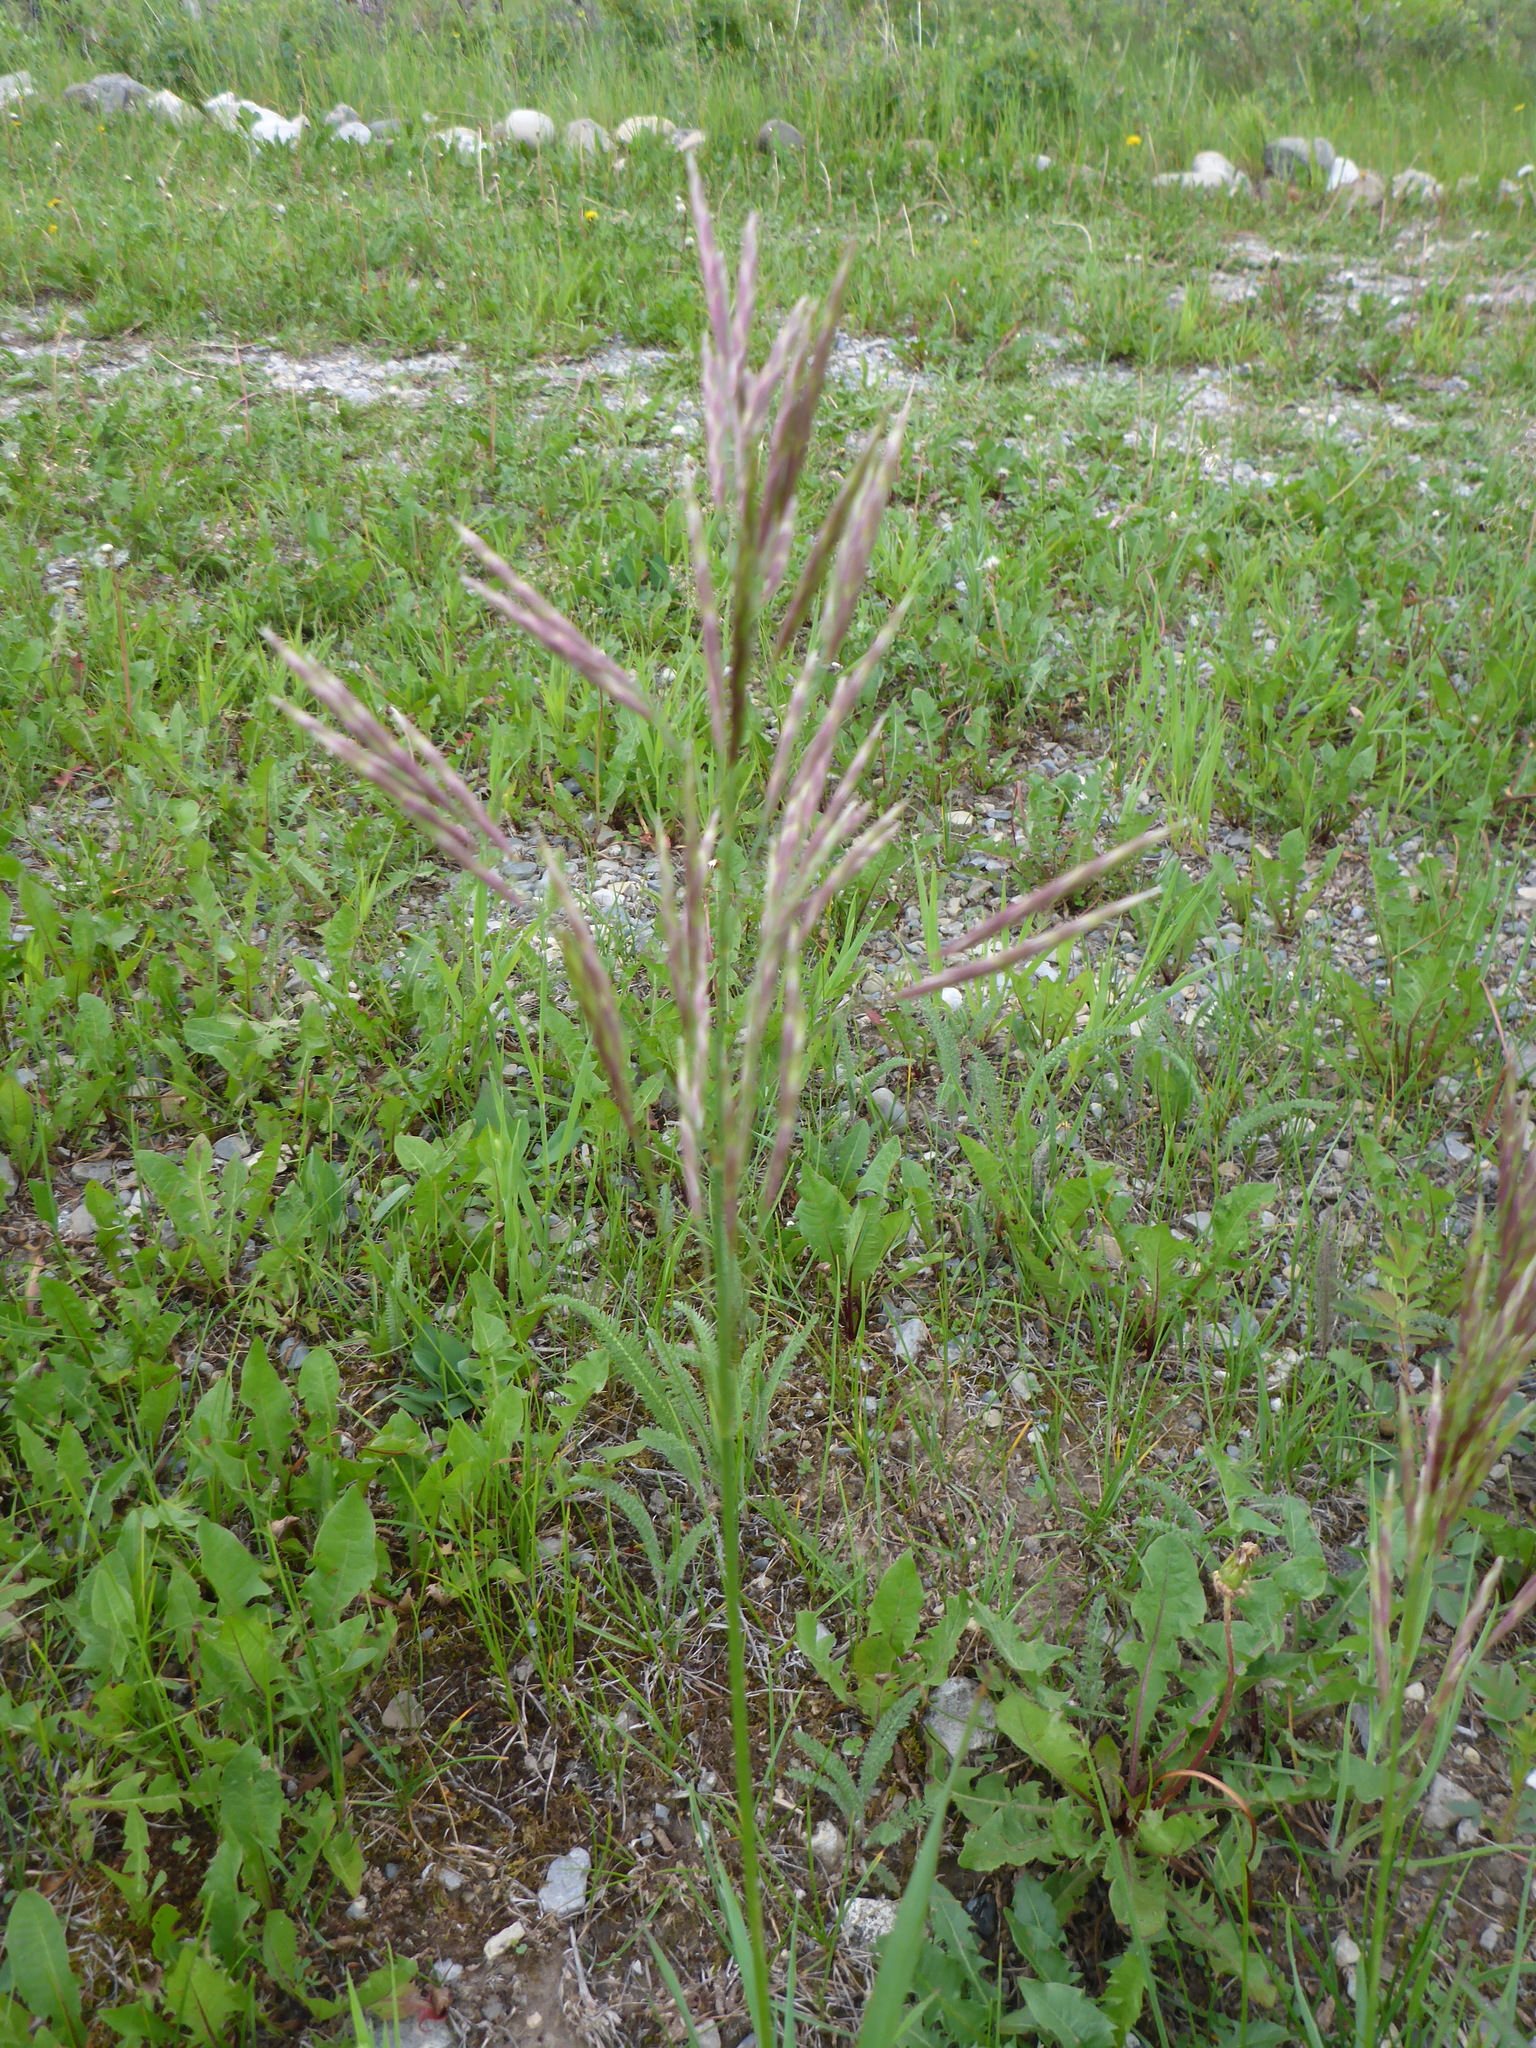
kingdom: Plantae
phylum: Tracheophyta
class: Liliopsida
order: Poales
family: Poaceae
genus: Bromus
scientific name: Bromus inermis
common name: Smooth brome
